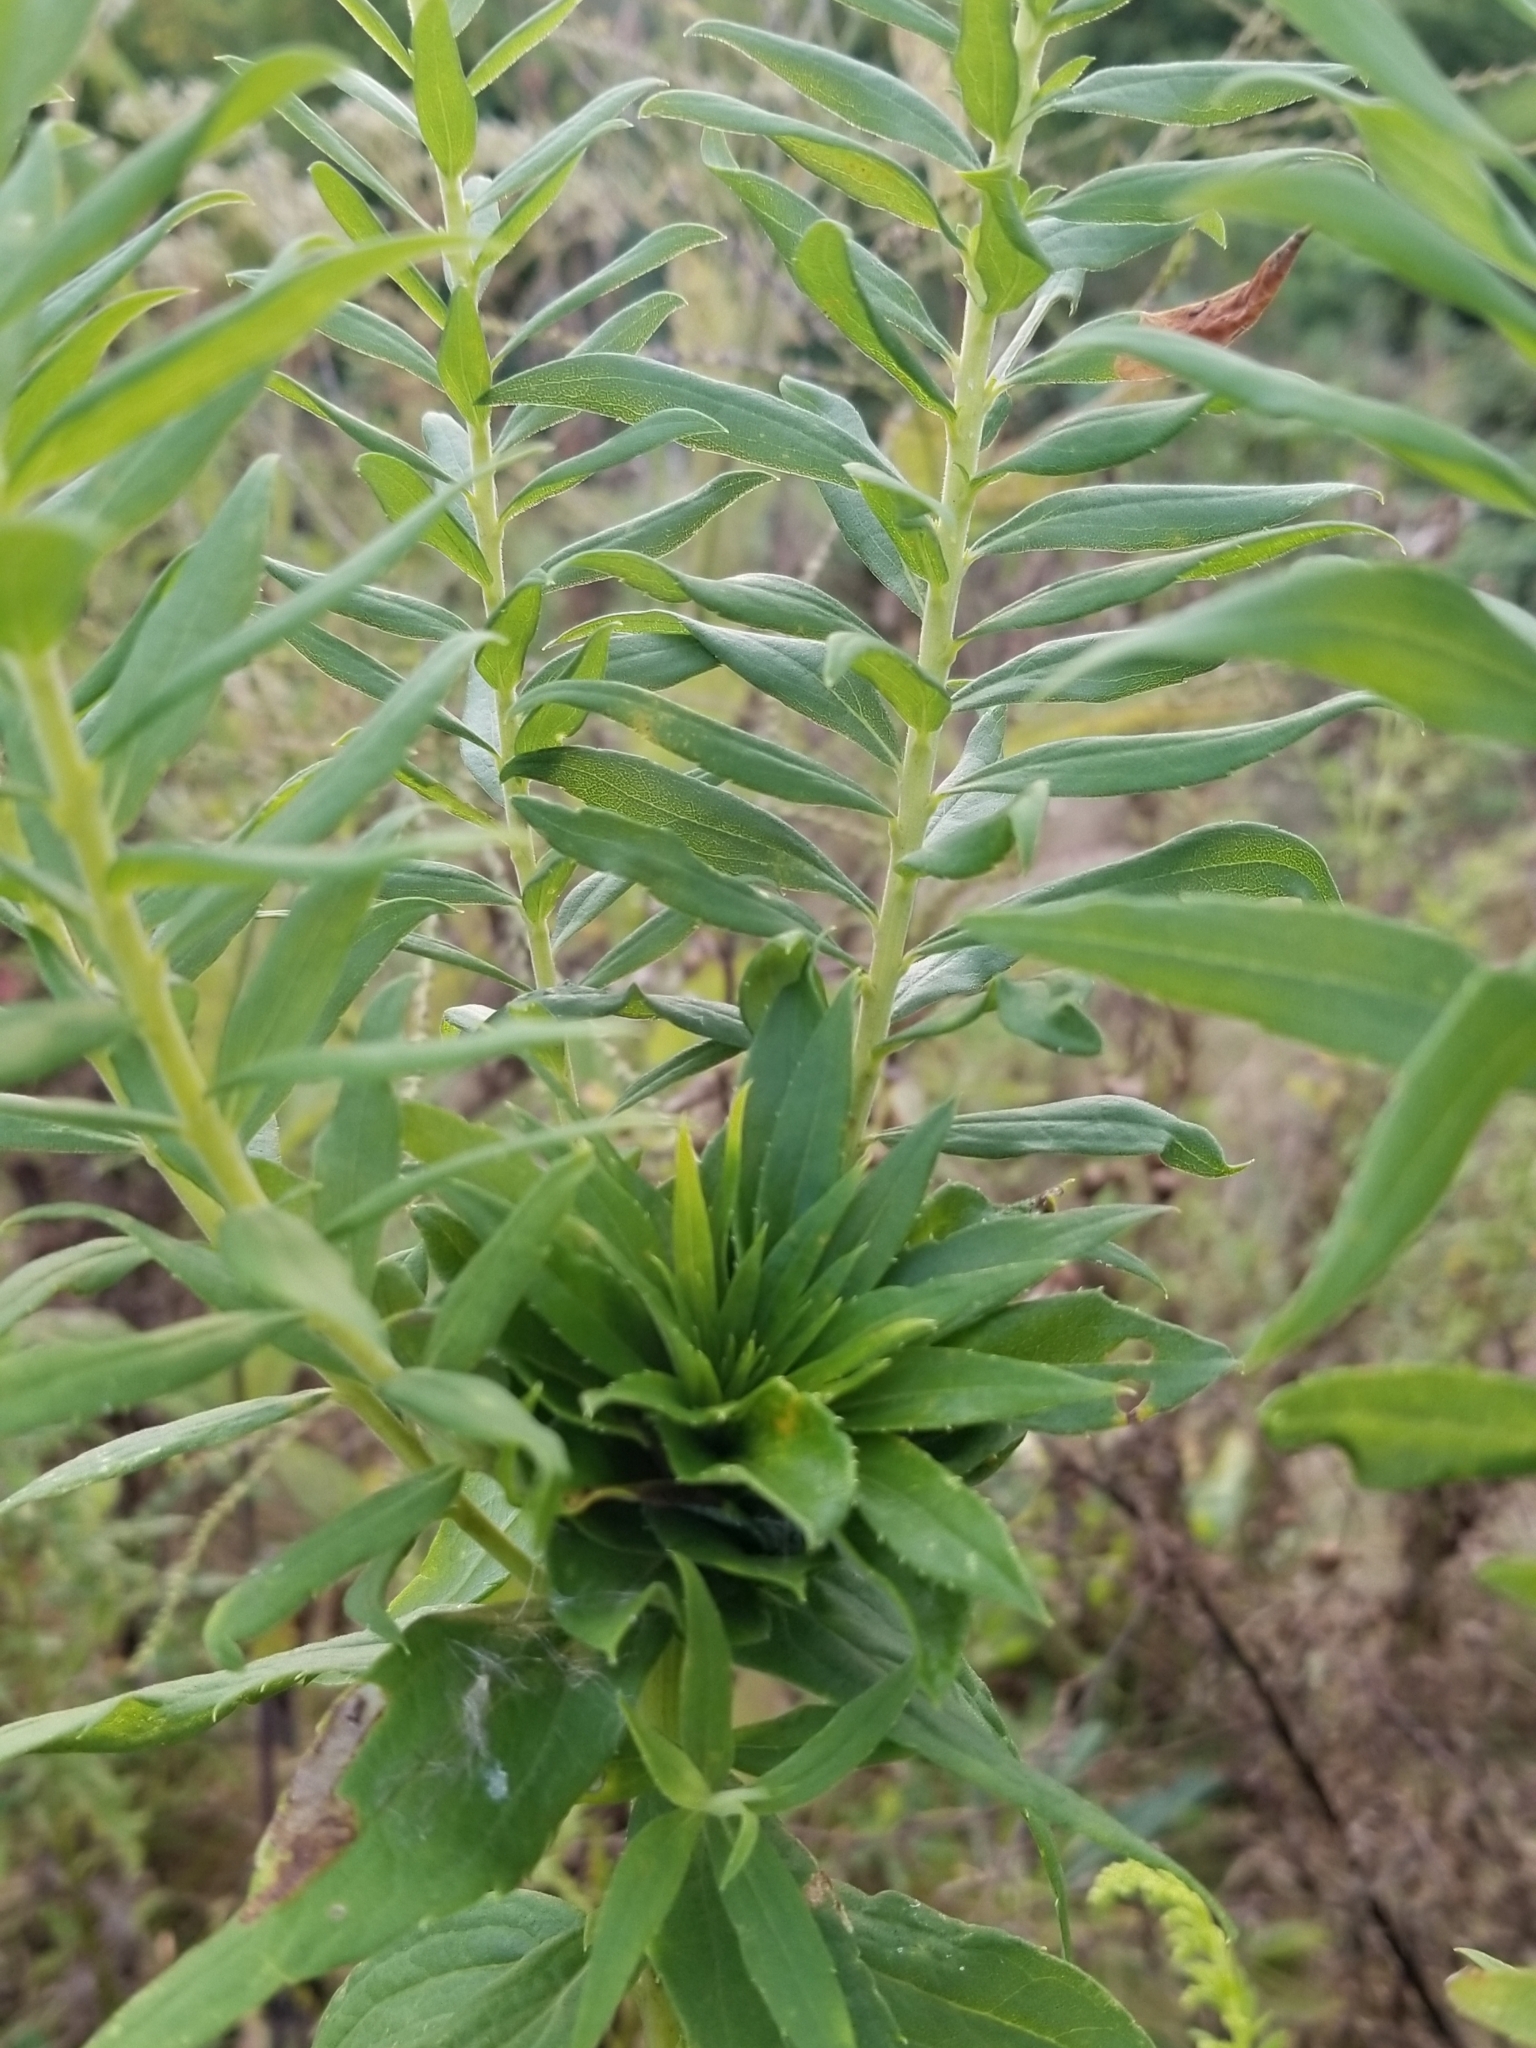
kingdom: Animalia
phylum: Arthropoda
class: Insecta
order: Diptera
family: Cecidomyiidae
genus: Rhopalomyia
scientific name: Rhopalomyia solidaginis
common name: Goldenrod bunch gall midge
